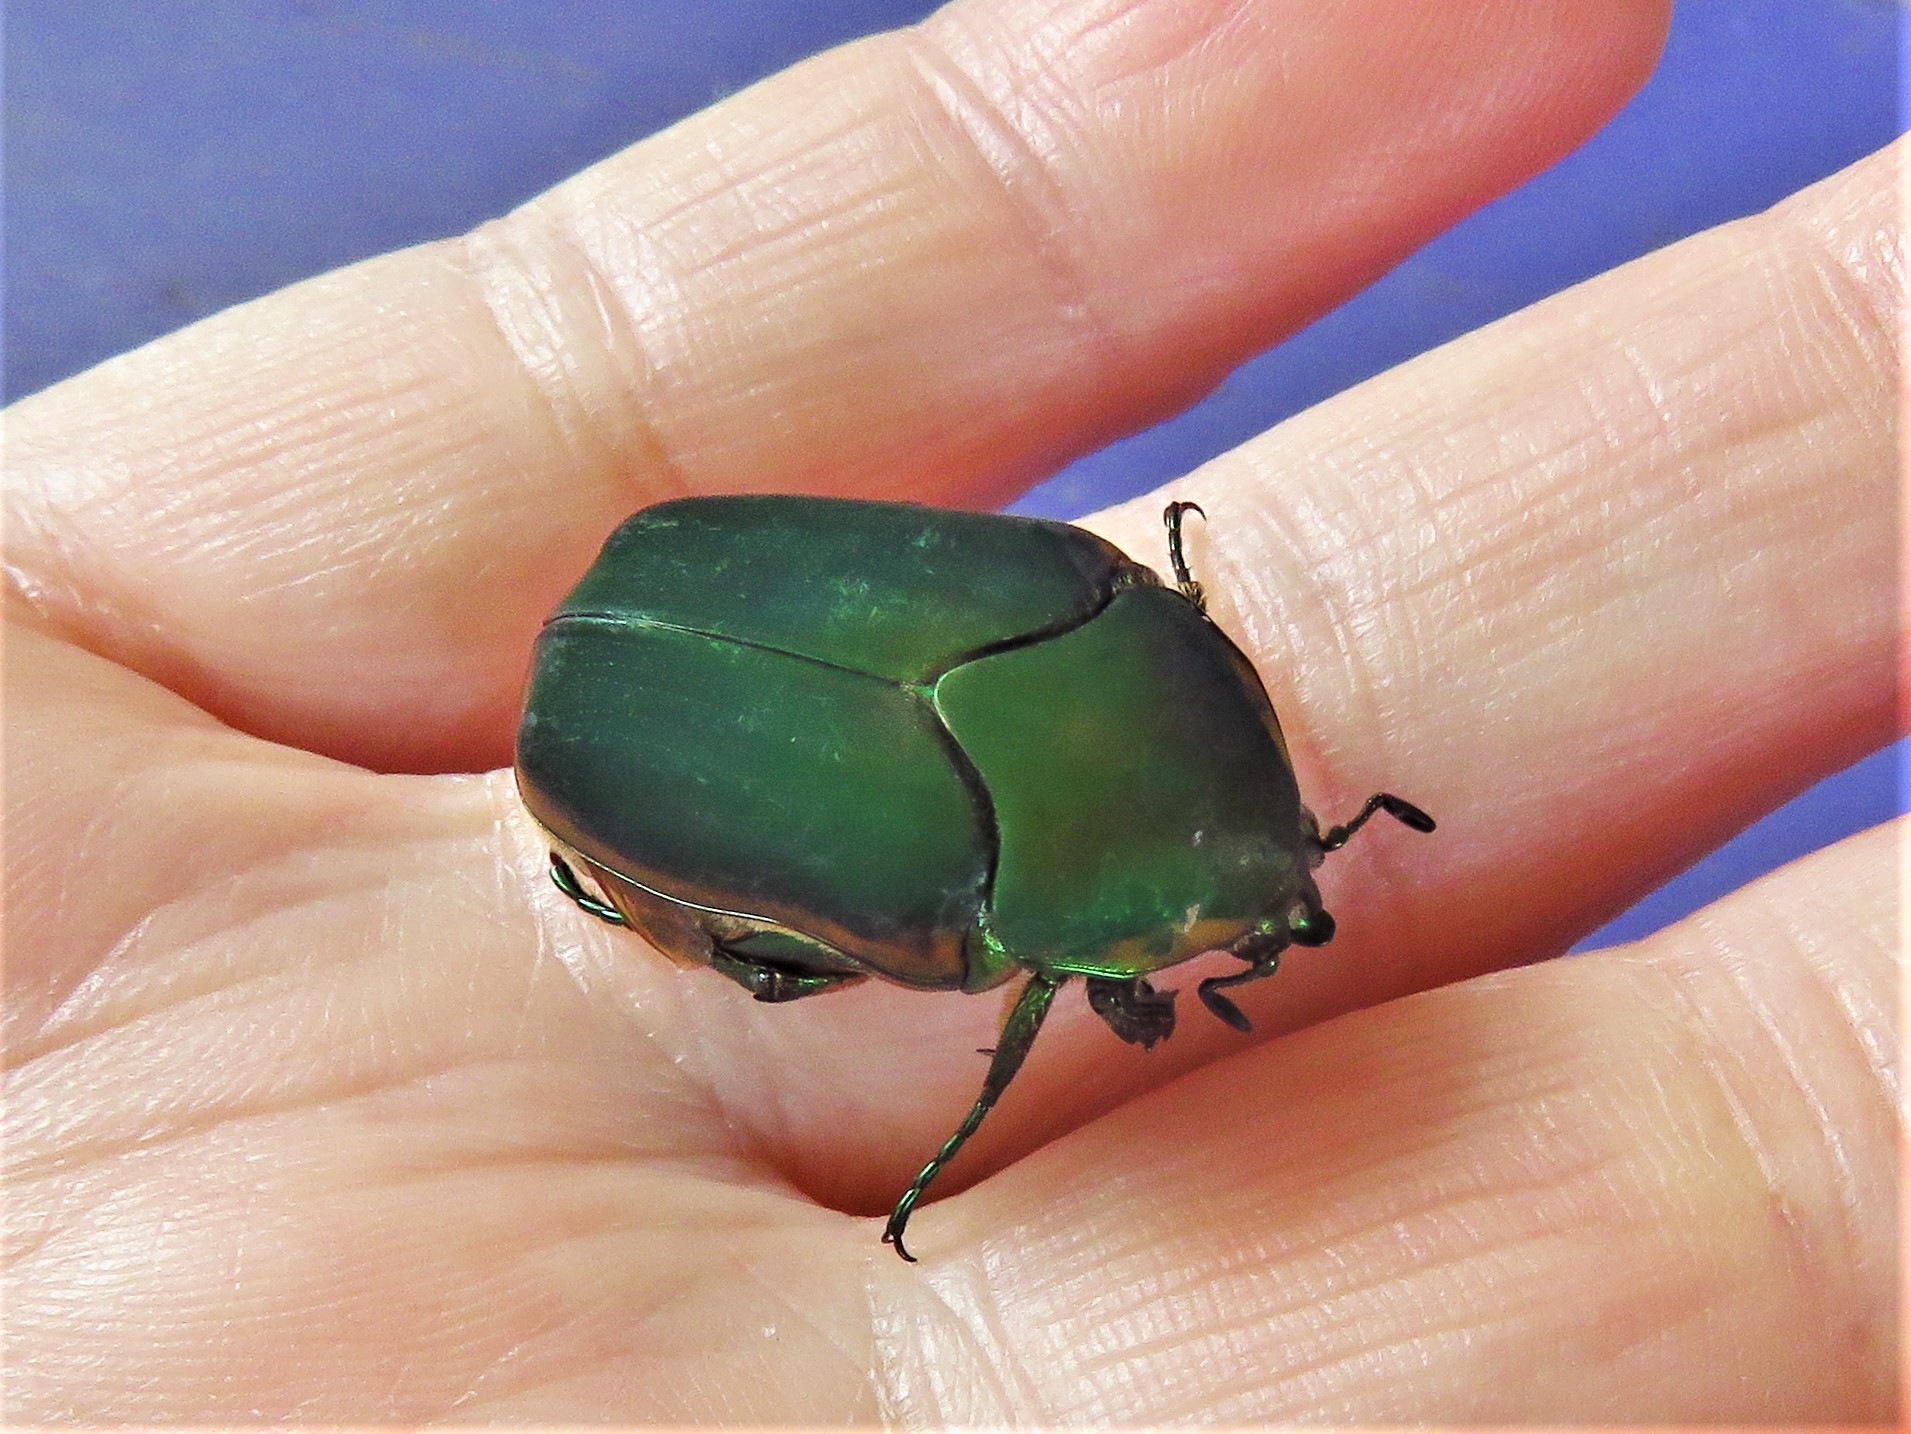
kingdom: Animalia
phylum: Arthropoda
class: Insecta
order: Coleoptera
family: Scarabaeidae
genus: Cotinis
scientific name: Cotinis nitida
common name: Common green june beetle
